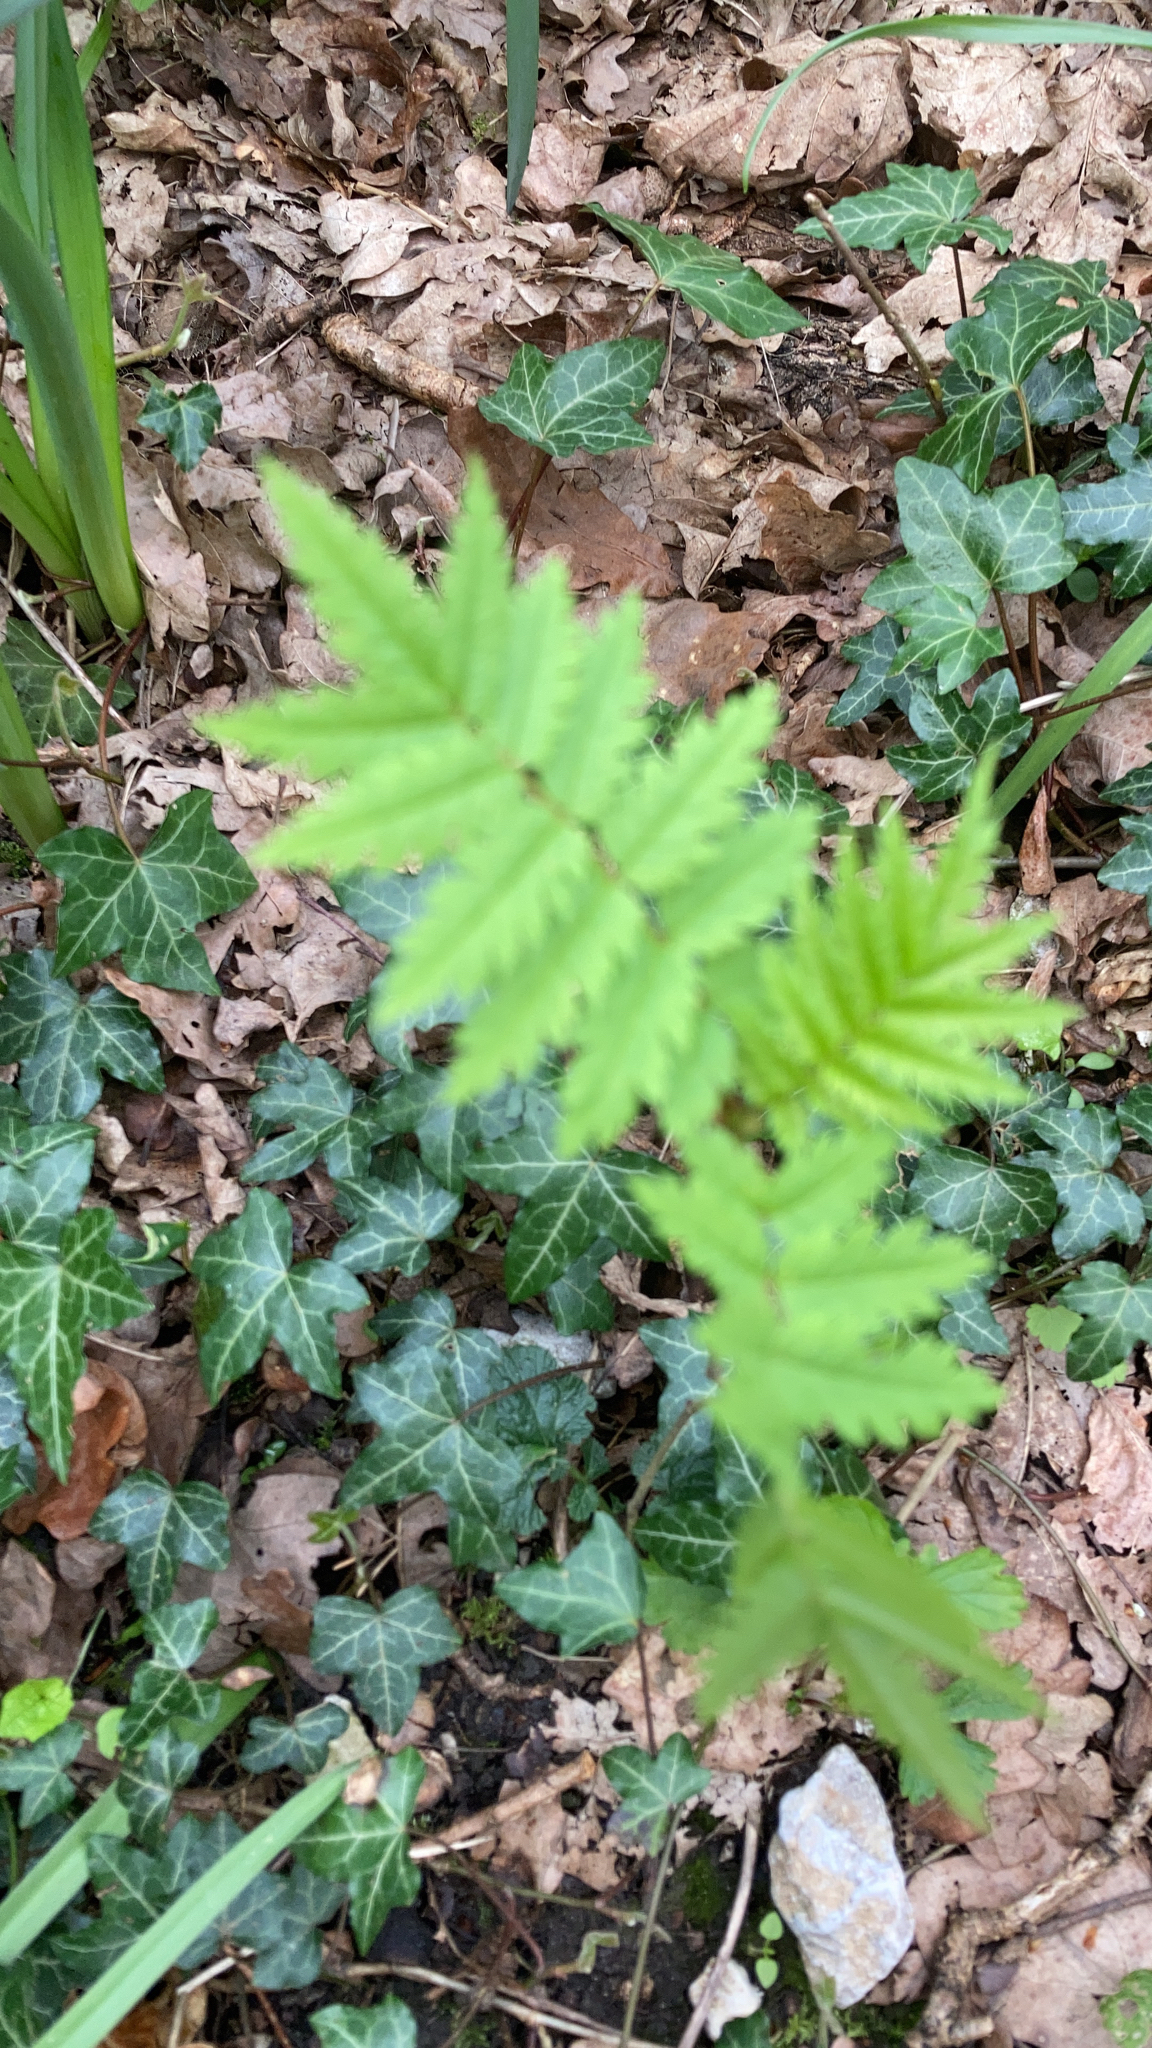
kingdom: Plantae
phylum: Tracheophyta
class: Magnoliopsida
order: Rosales
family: Rosaceae
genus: Sorbus
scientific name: Sorbus aucuparia
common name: Rowan
